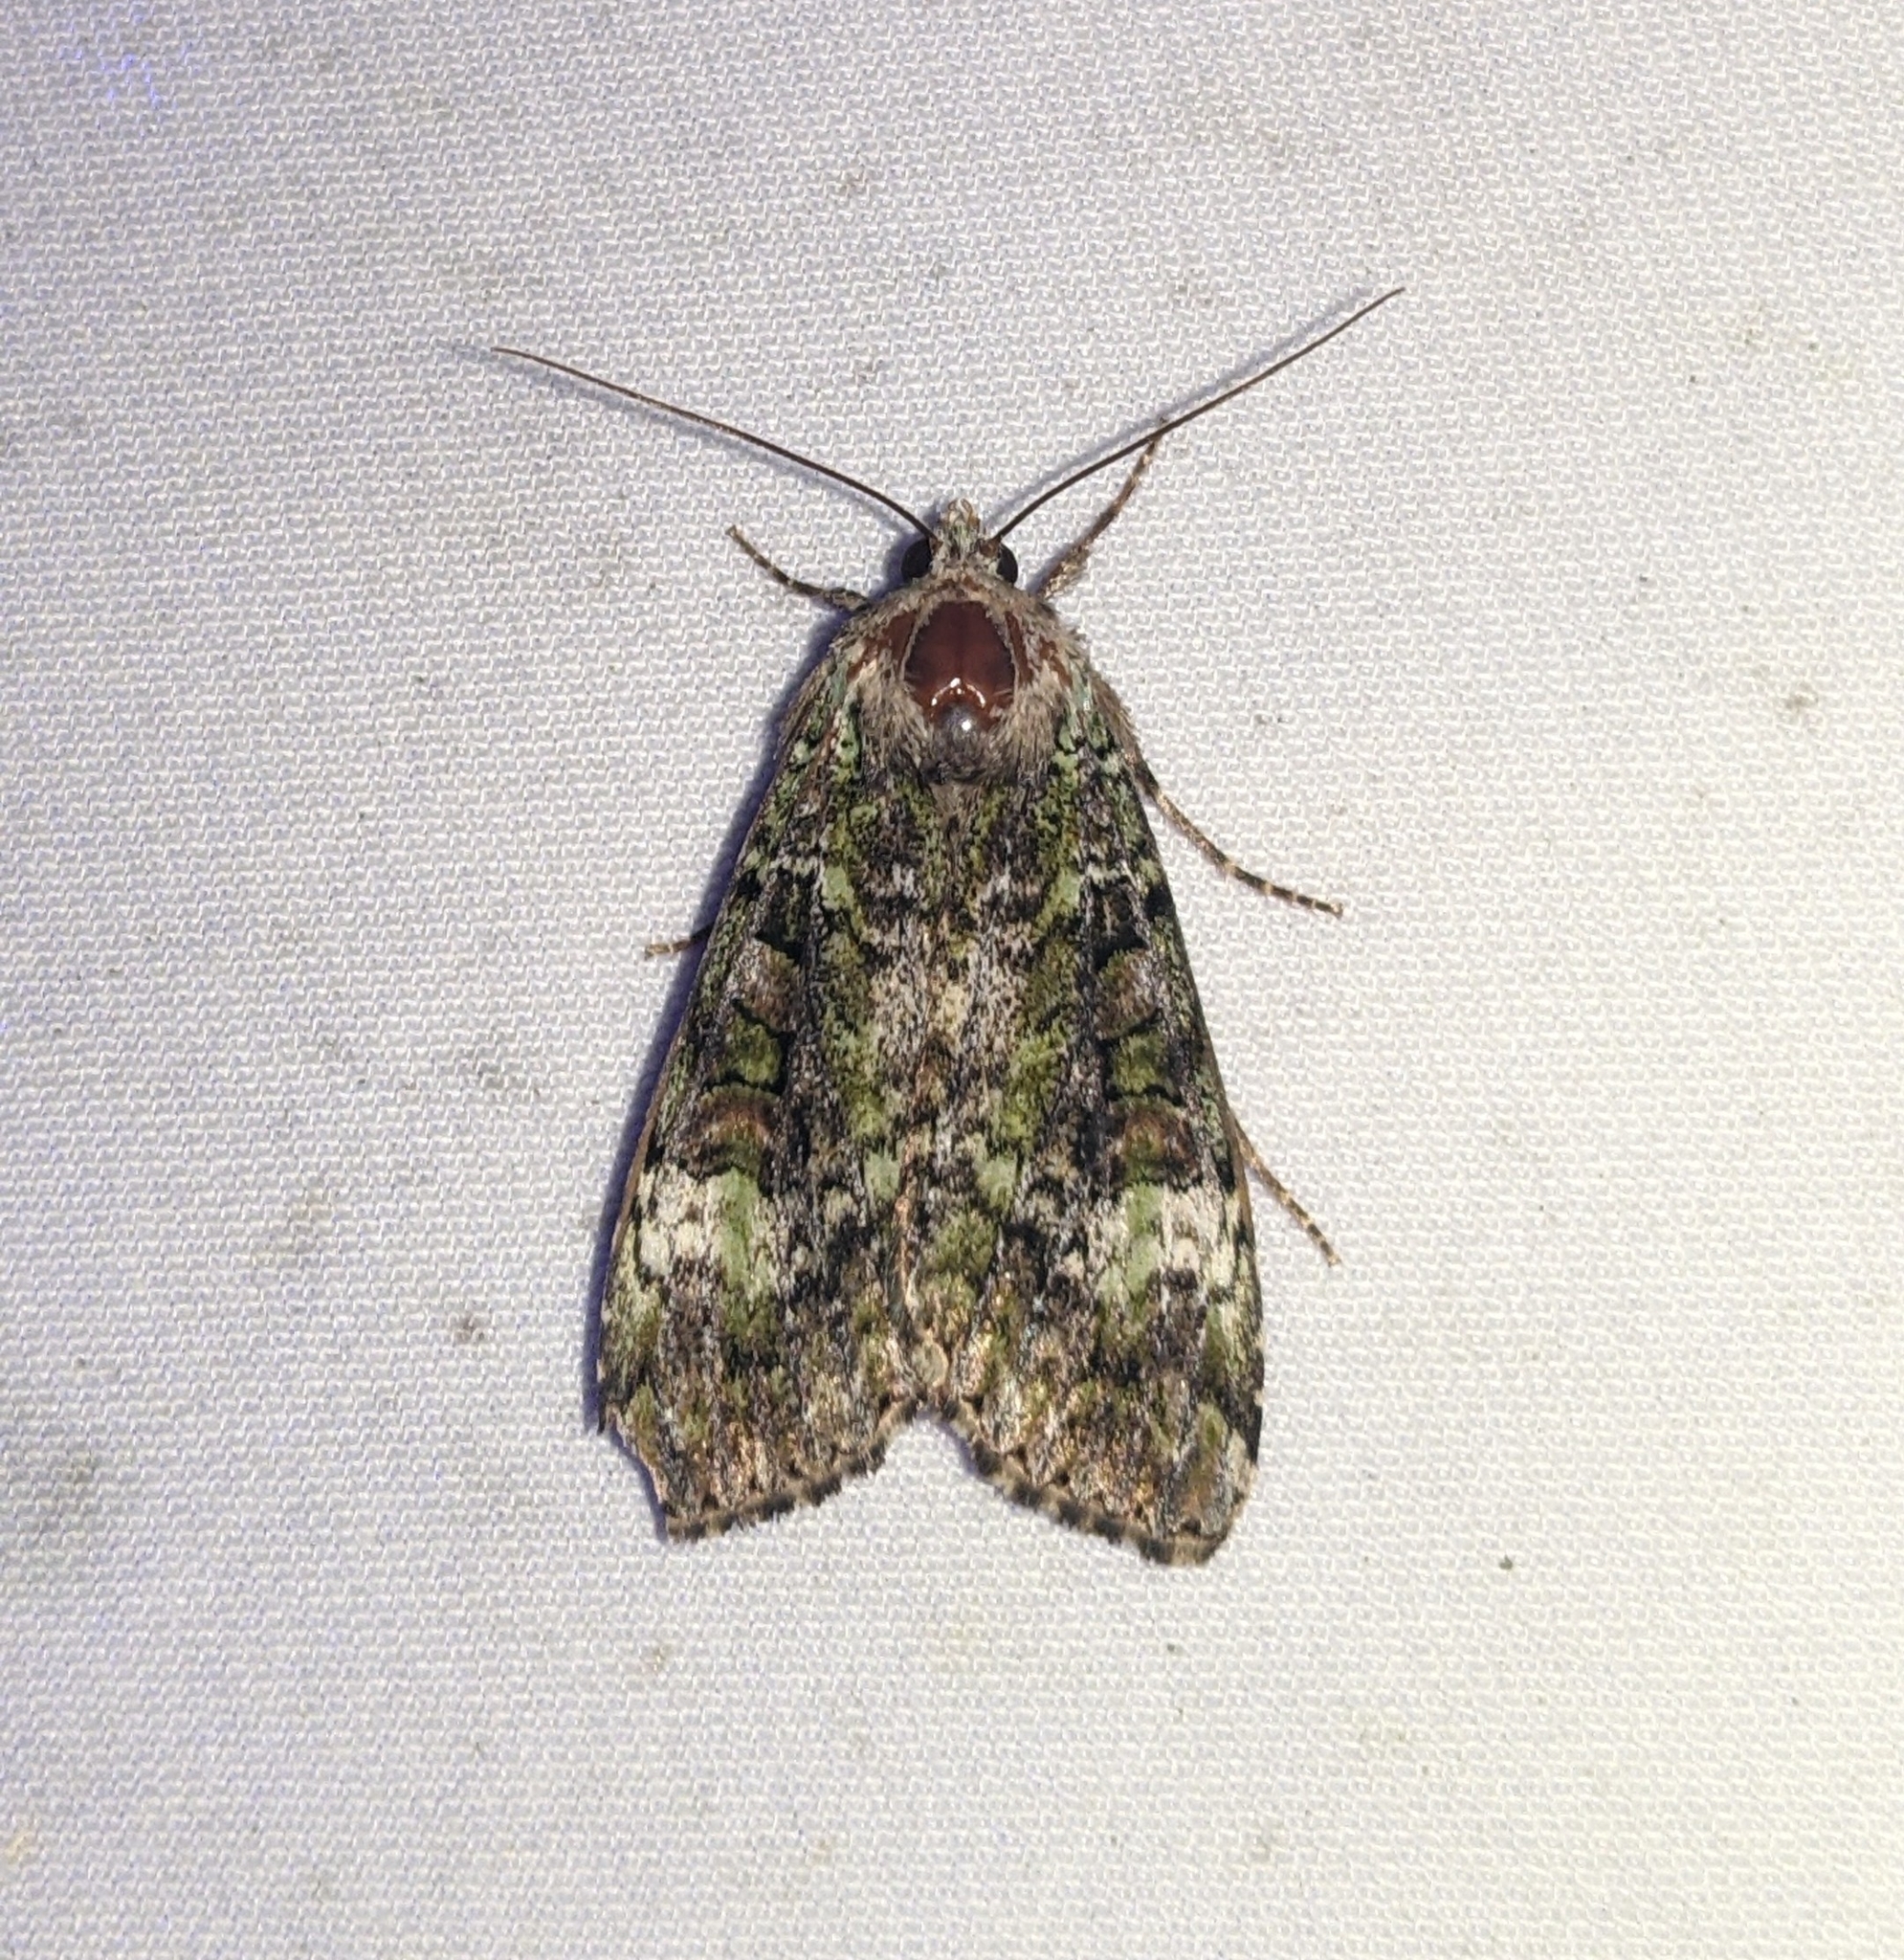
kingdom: Animalia
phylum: Arthropoda
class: Insecta
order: Lepidoptera
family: Noctuidae
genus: Anaplectoides
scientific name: Anaplectoides prasina
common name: Green arches
